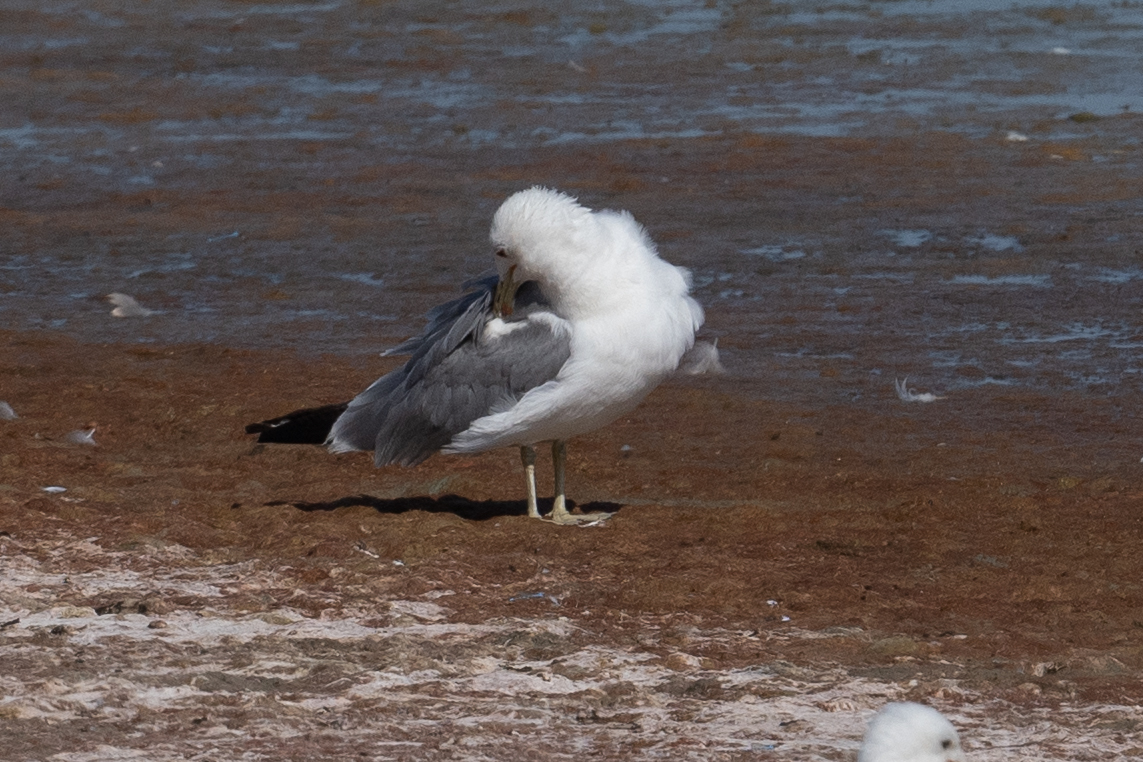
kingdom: Animalia
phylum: Chordata
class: Aves
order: Charadriiformes
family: Laridae
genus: Larus
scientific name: Larus californicus
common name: California gull
